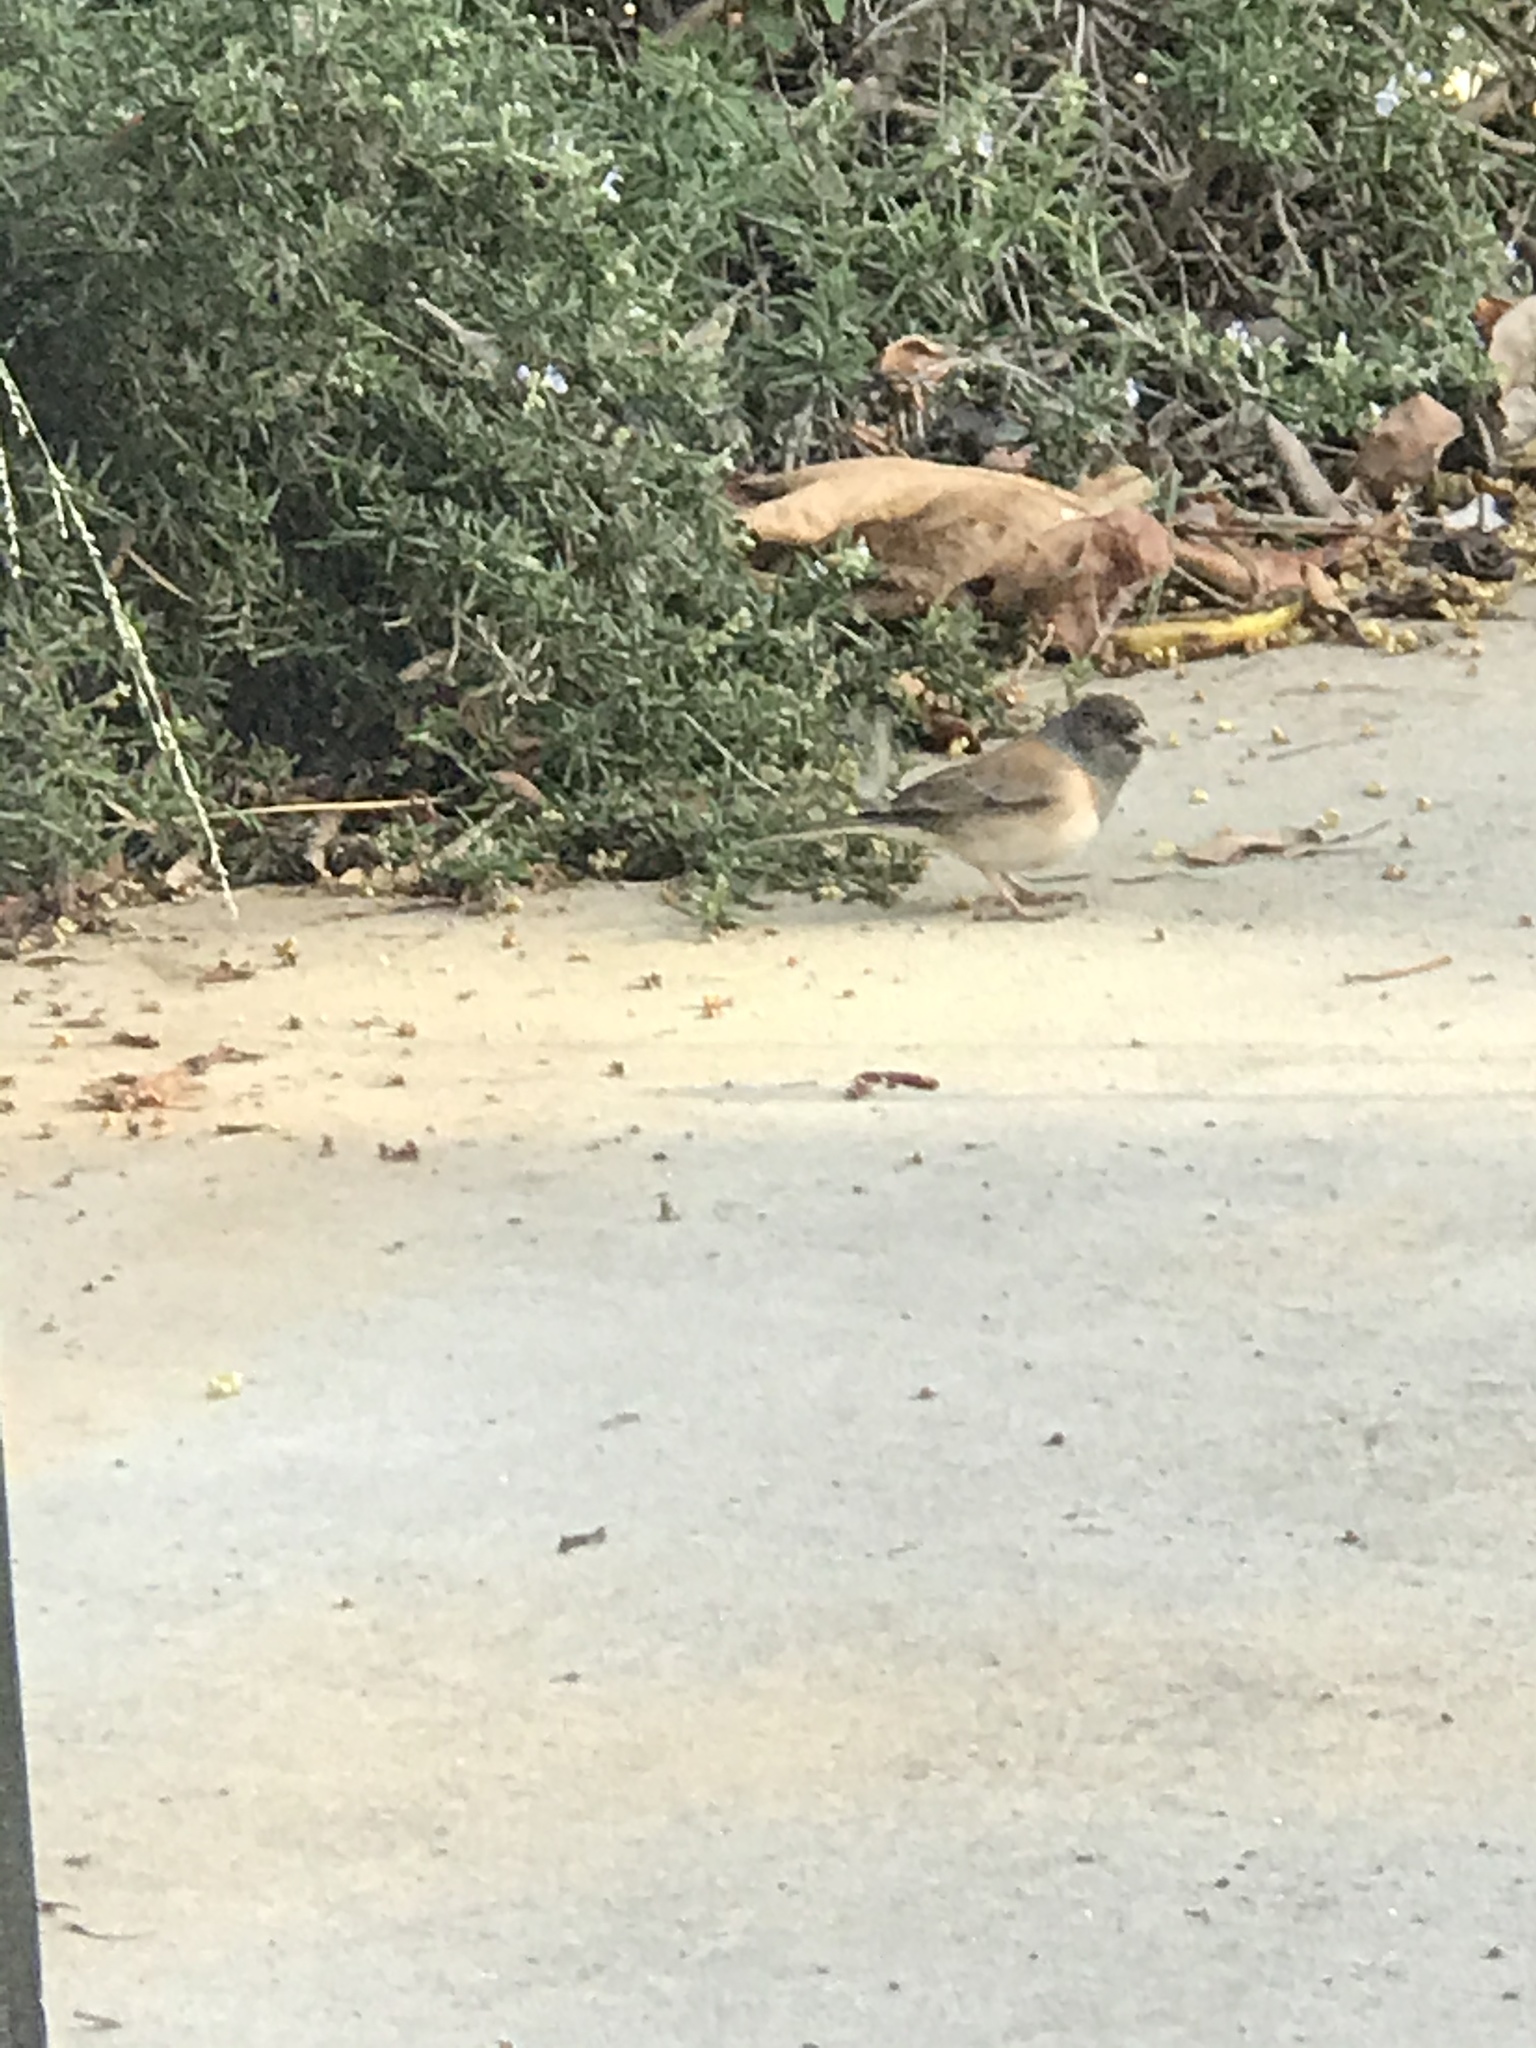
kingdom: Animalia
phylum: Chordata
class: Aves
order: Passeriformes
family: Passerellidae
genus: Junco
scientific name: Junco hyemalis
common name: Dark-eyed junco
